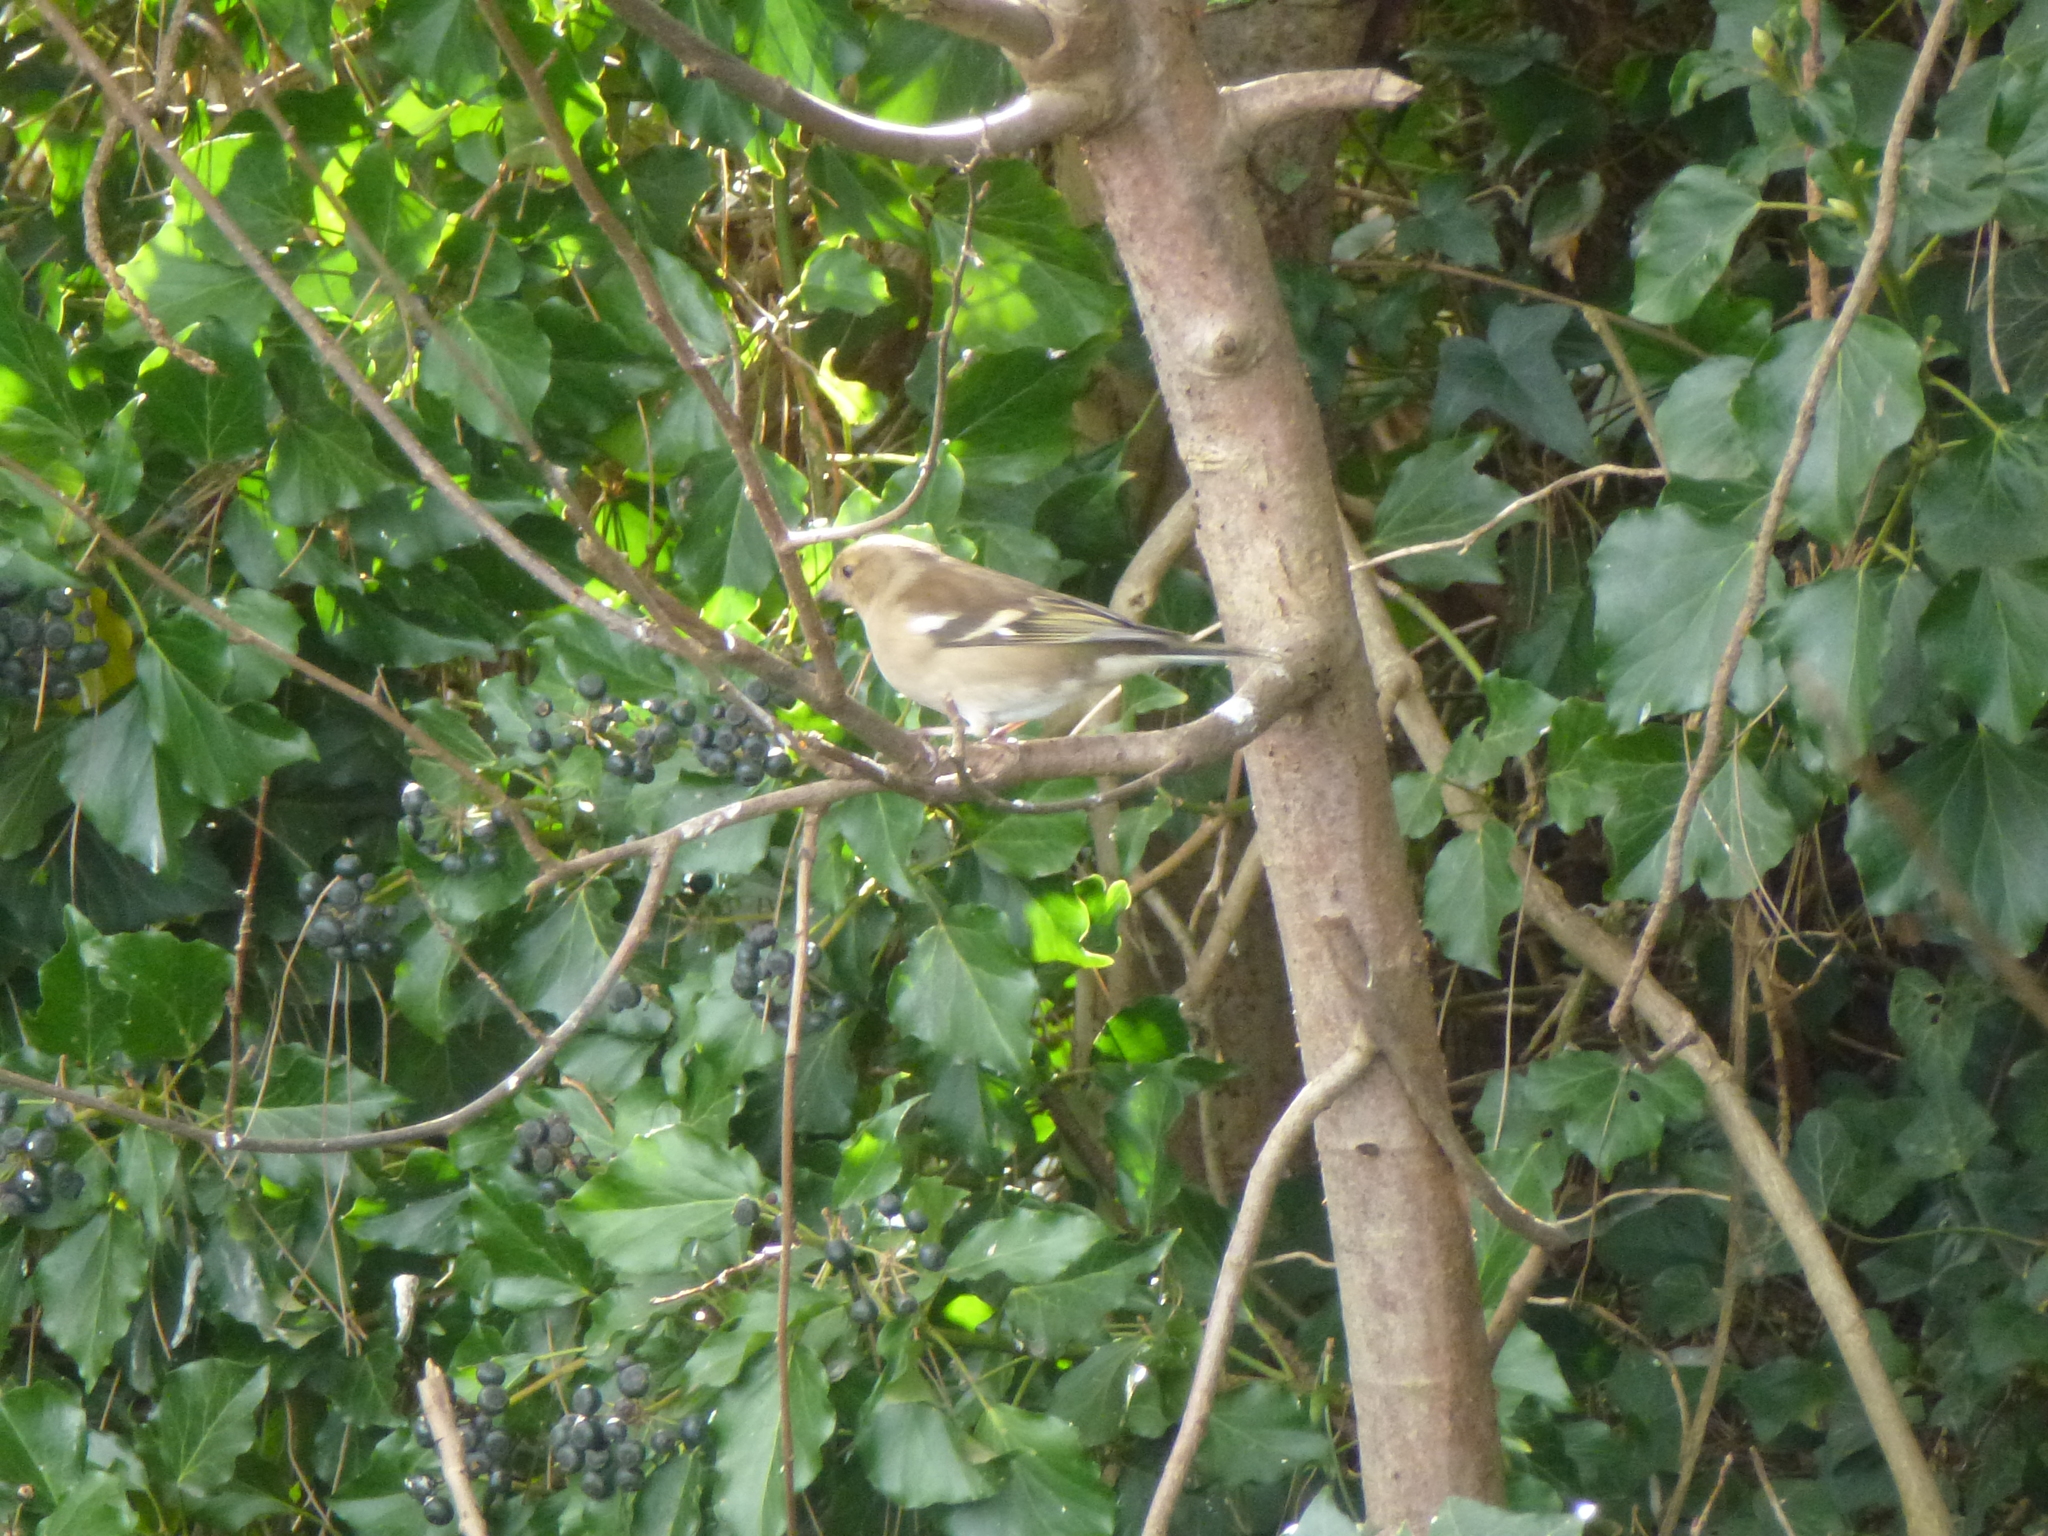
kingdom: Animalia
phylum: Chordata
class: Aves
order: Passeriformes
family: Fringillidae
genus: Fringilla
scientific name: Fringilla coelebs
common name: Common chaffinch
